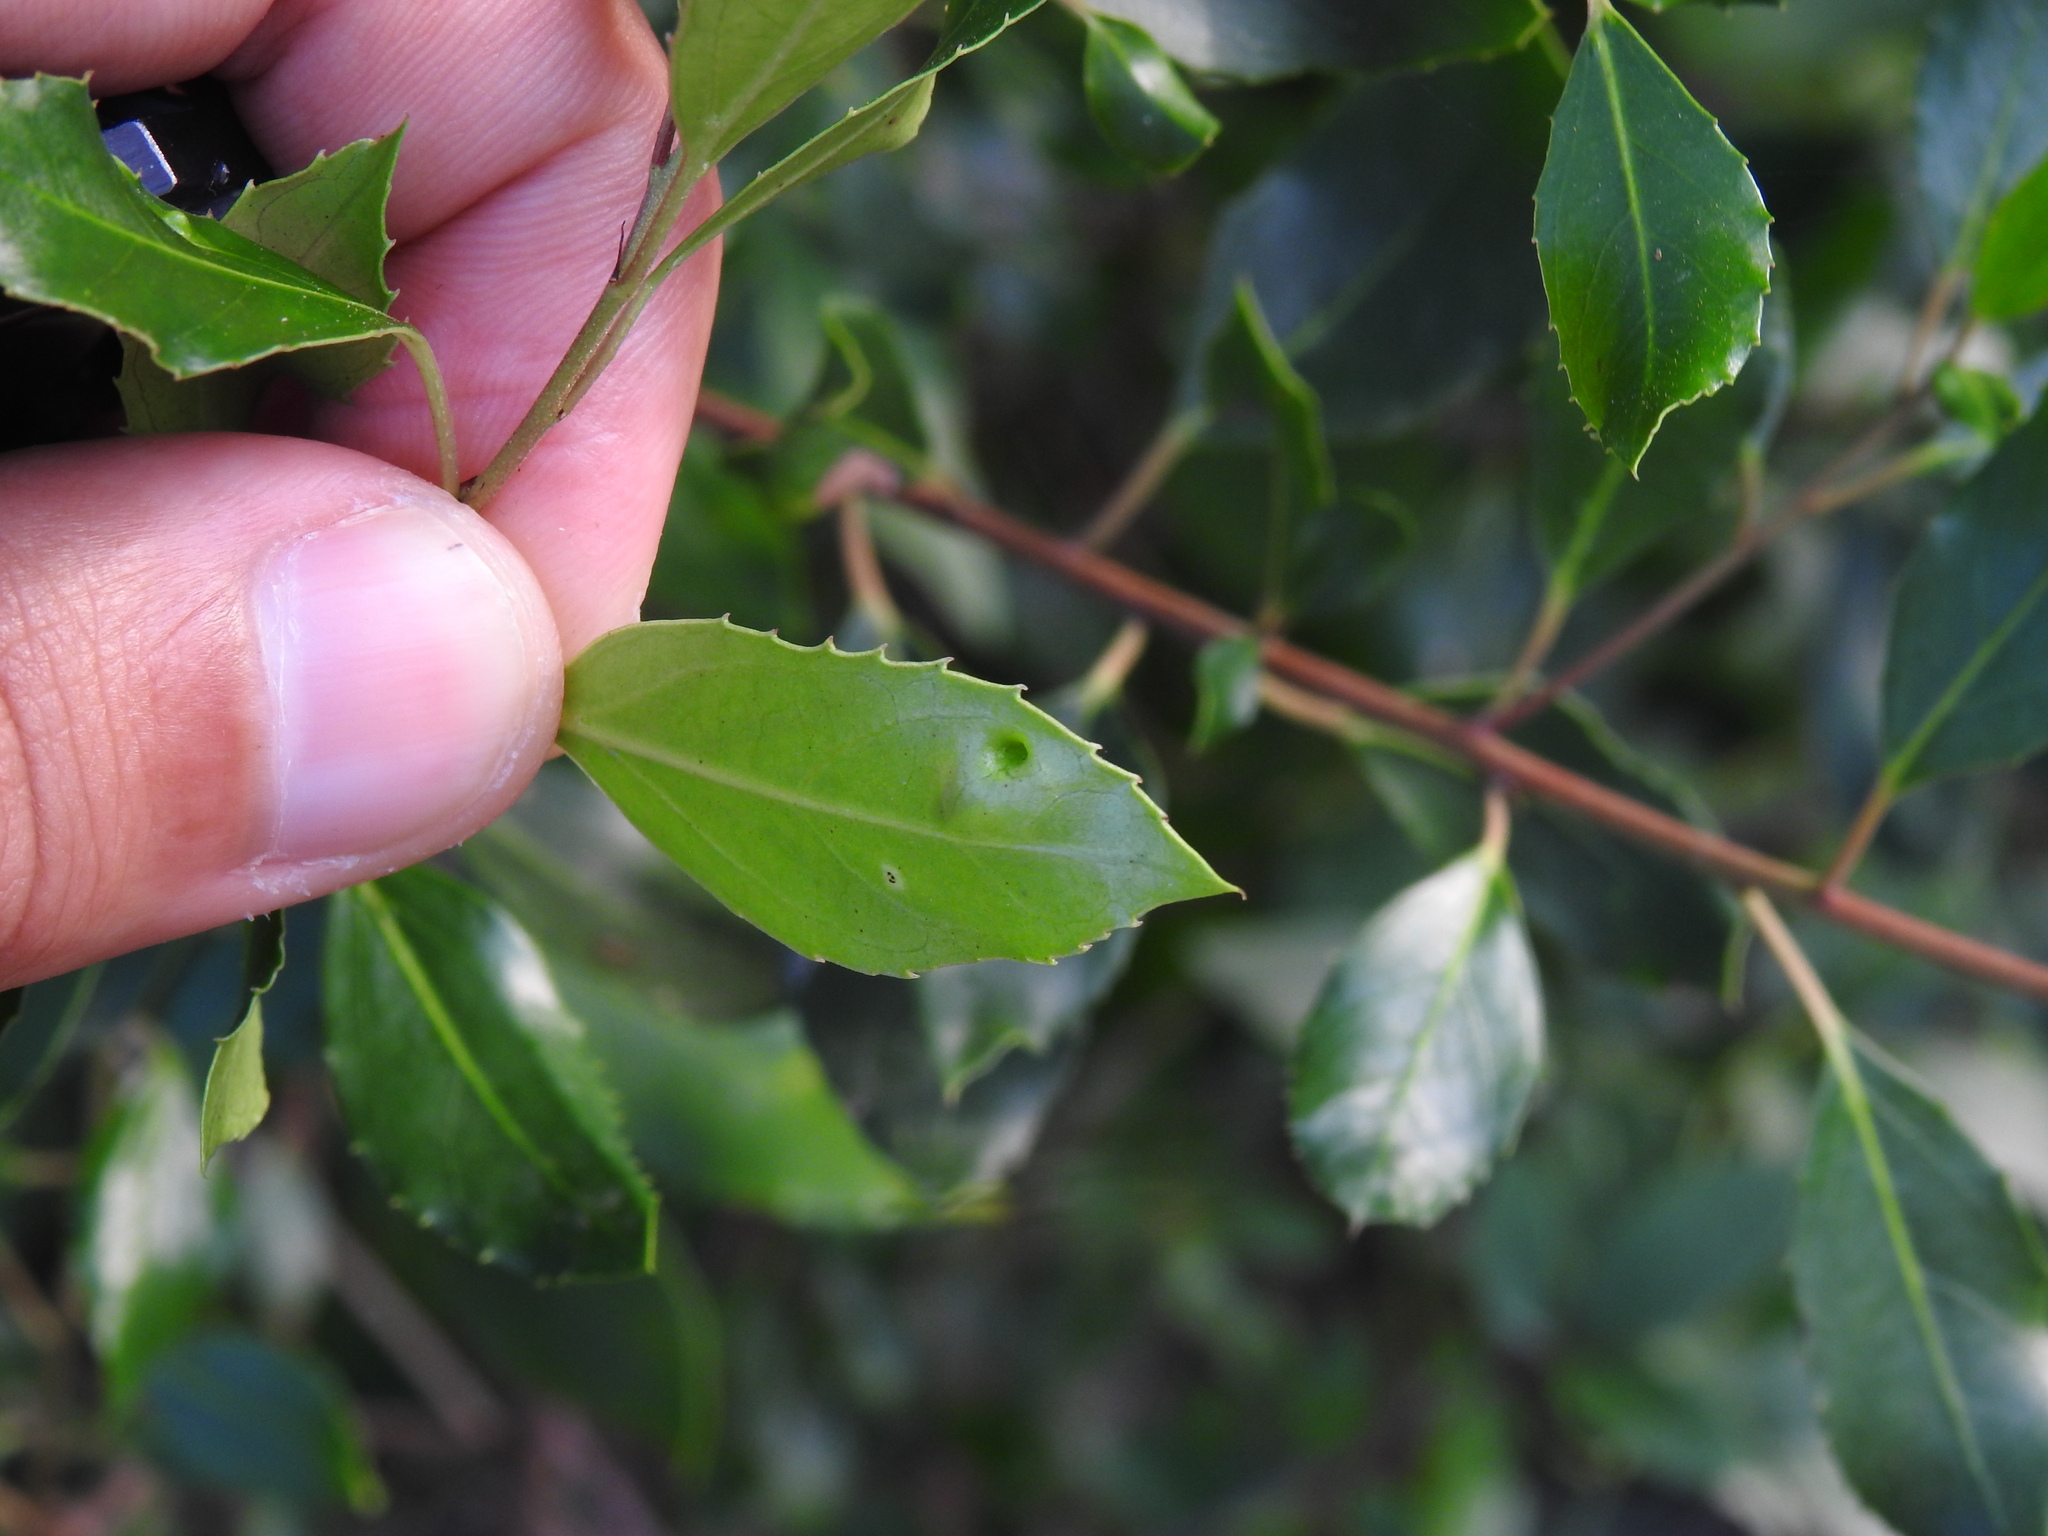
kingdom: Animalia
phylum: Arthropoda
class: Insecta
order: Hemiptera
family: Triozidae
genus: Trioza
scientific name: Trioza kiefferi
